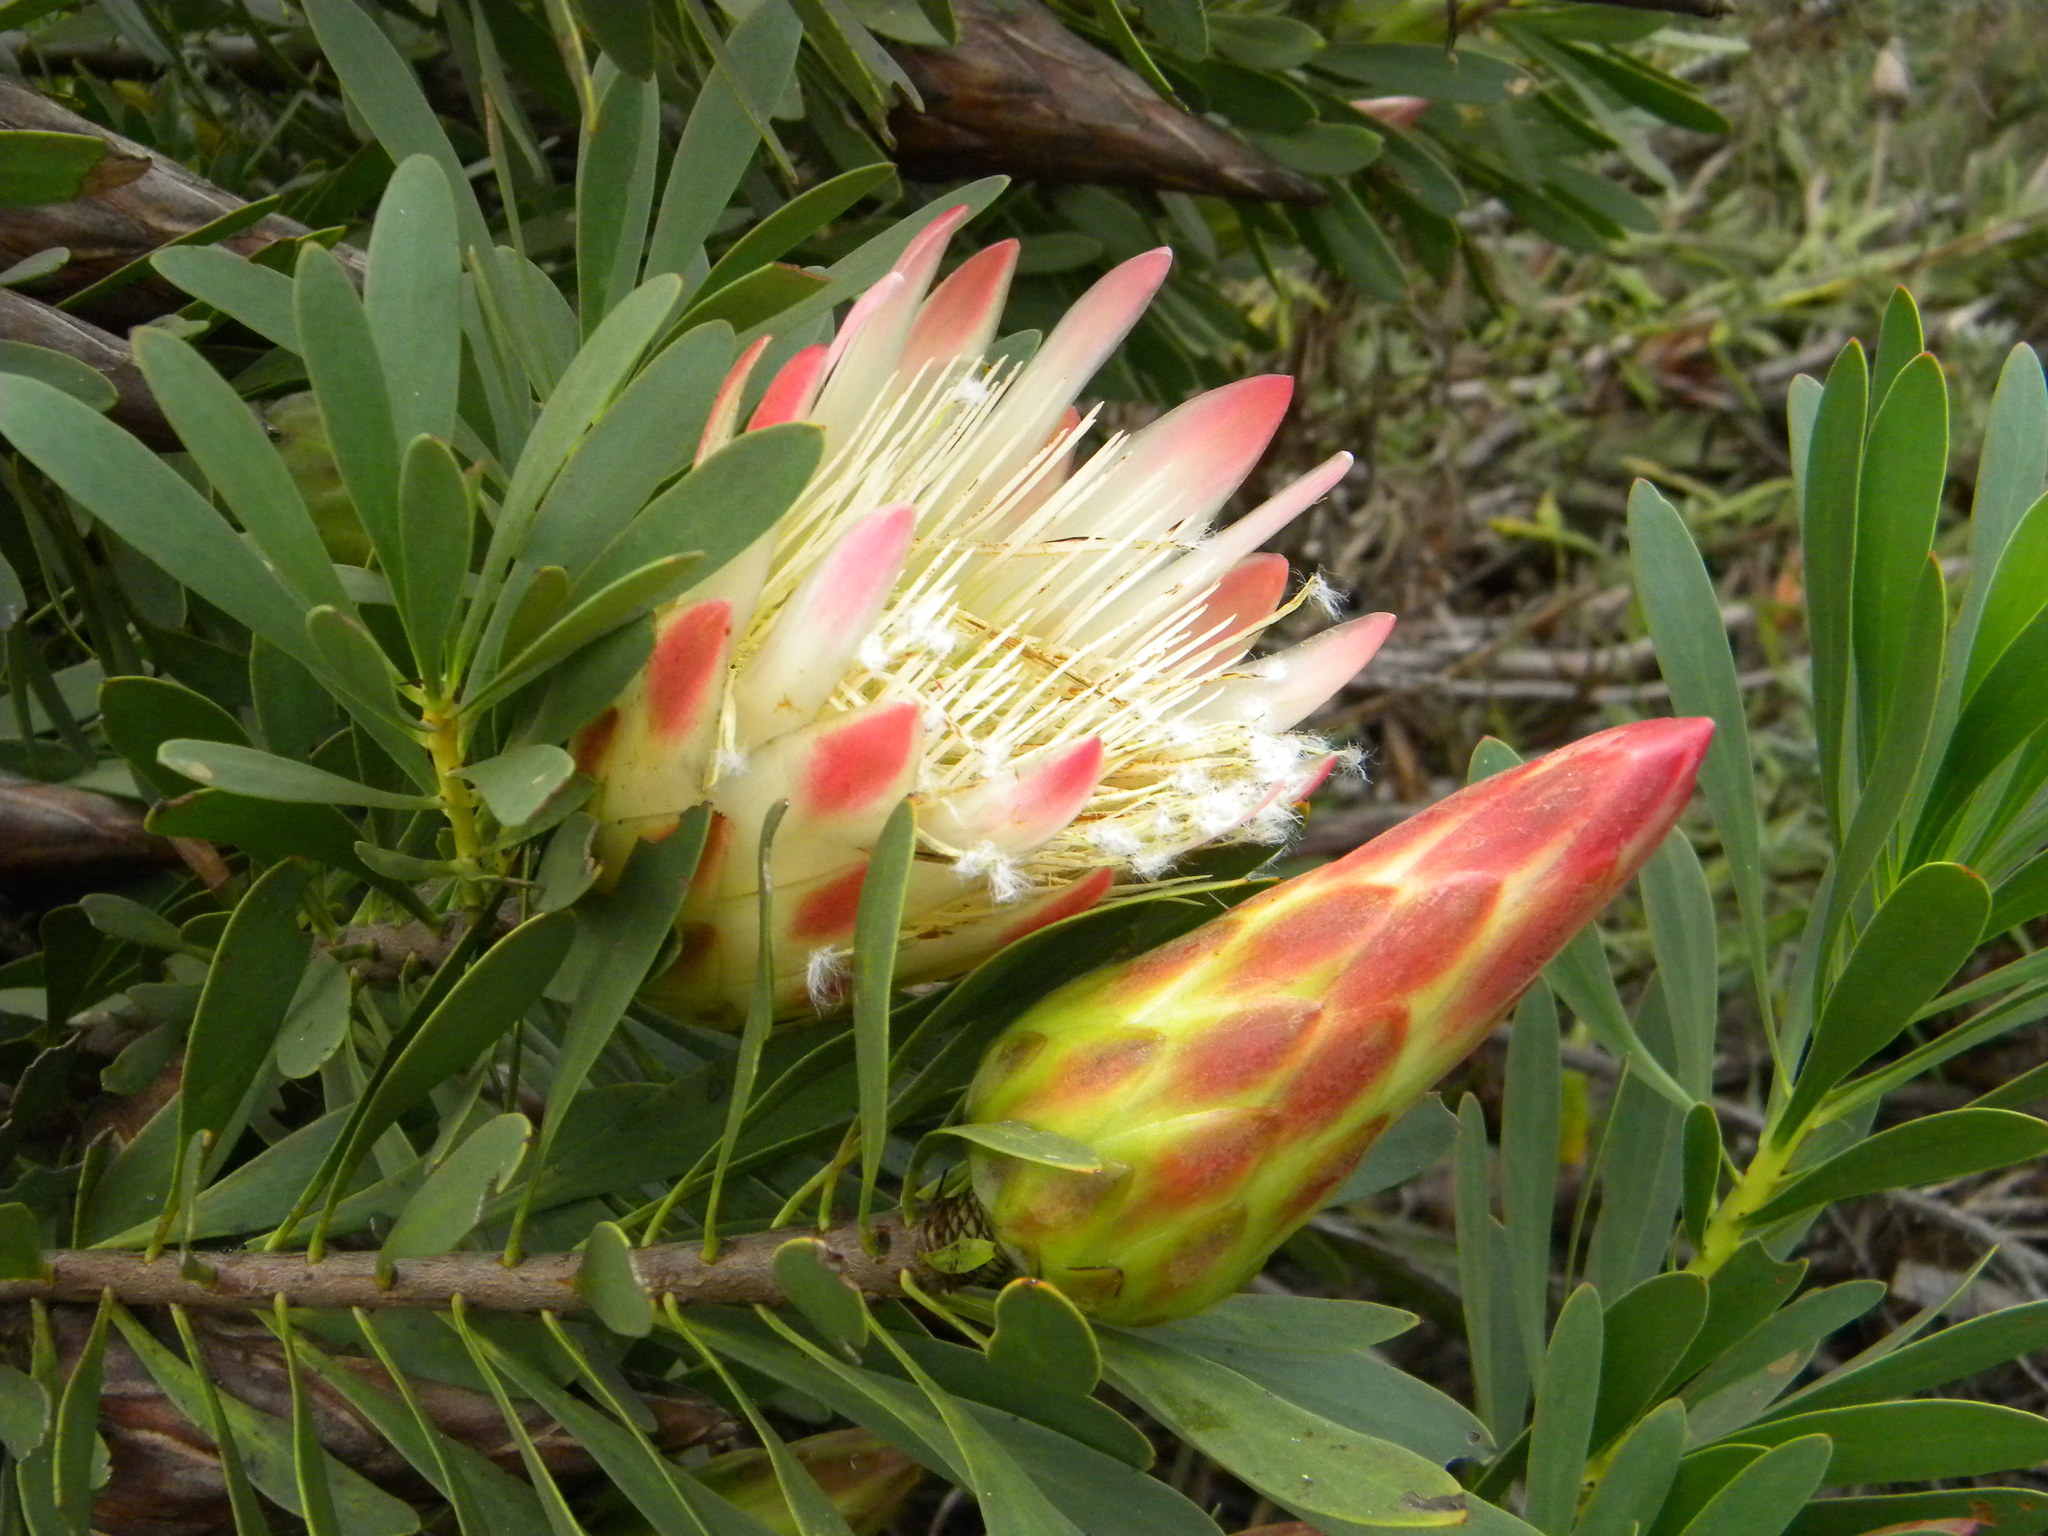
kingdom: Plantae
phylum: Tracheophyta
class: Magnoliopsida
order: Proteales
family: Proteaceae
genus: Protea
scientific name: Protea repens
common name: Sugarbush
